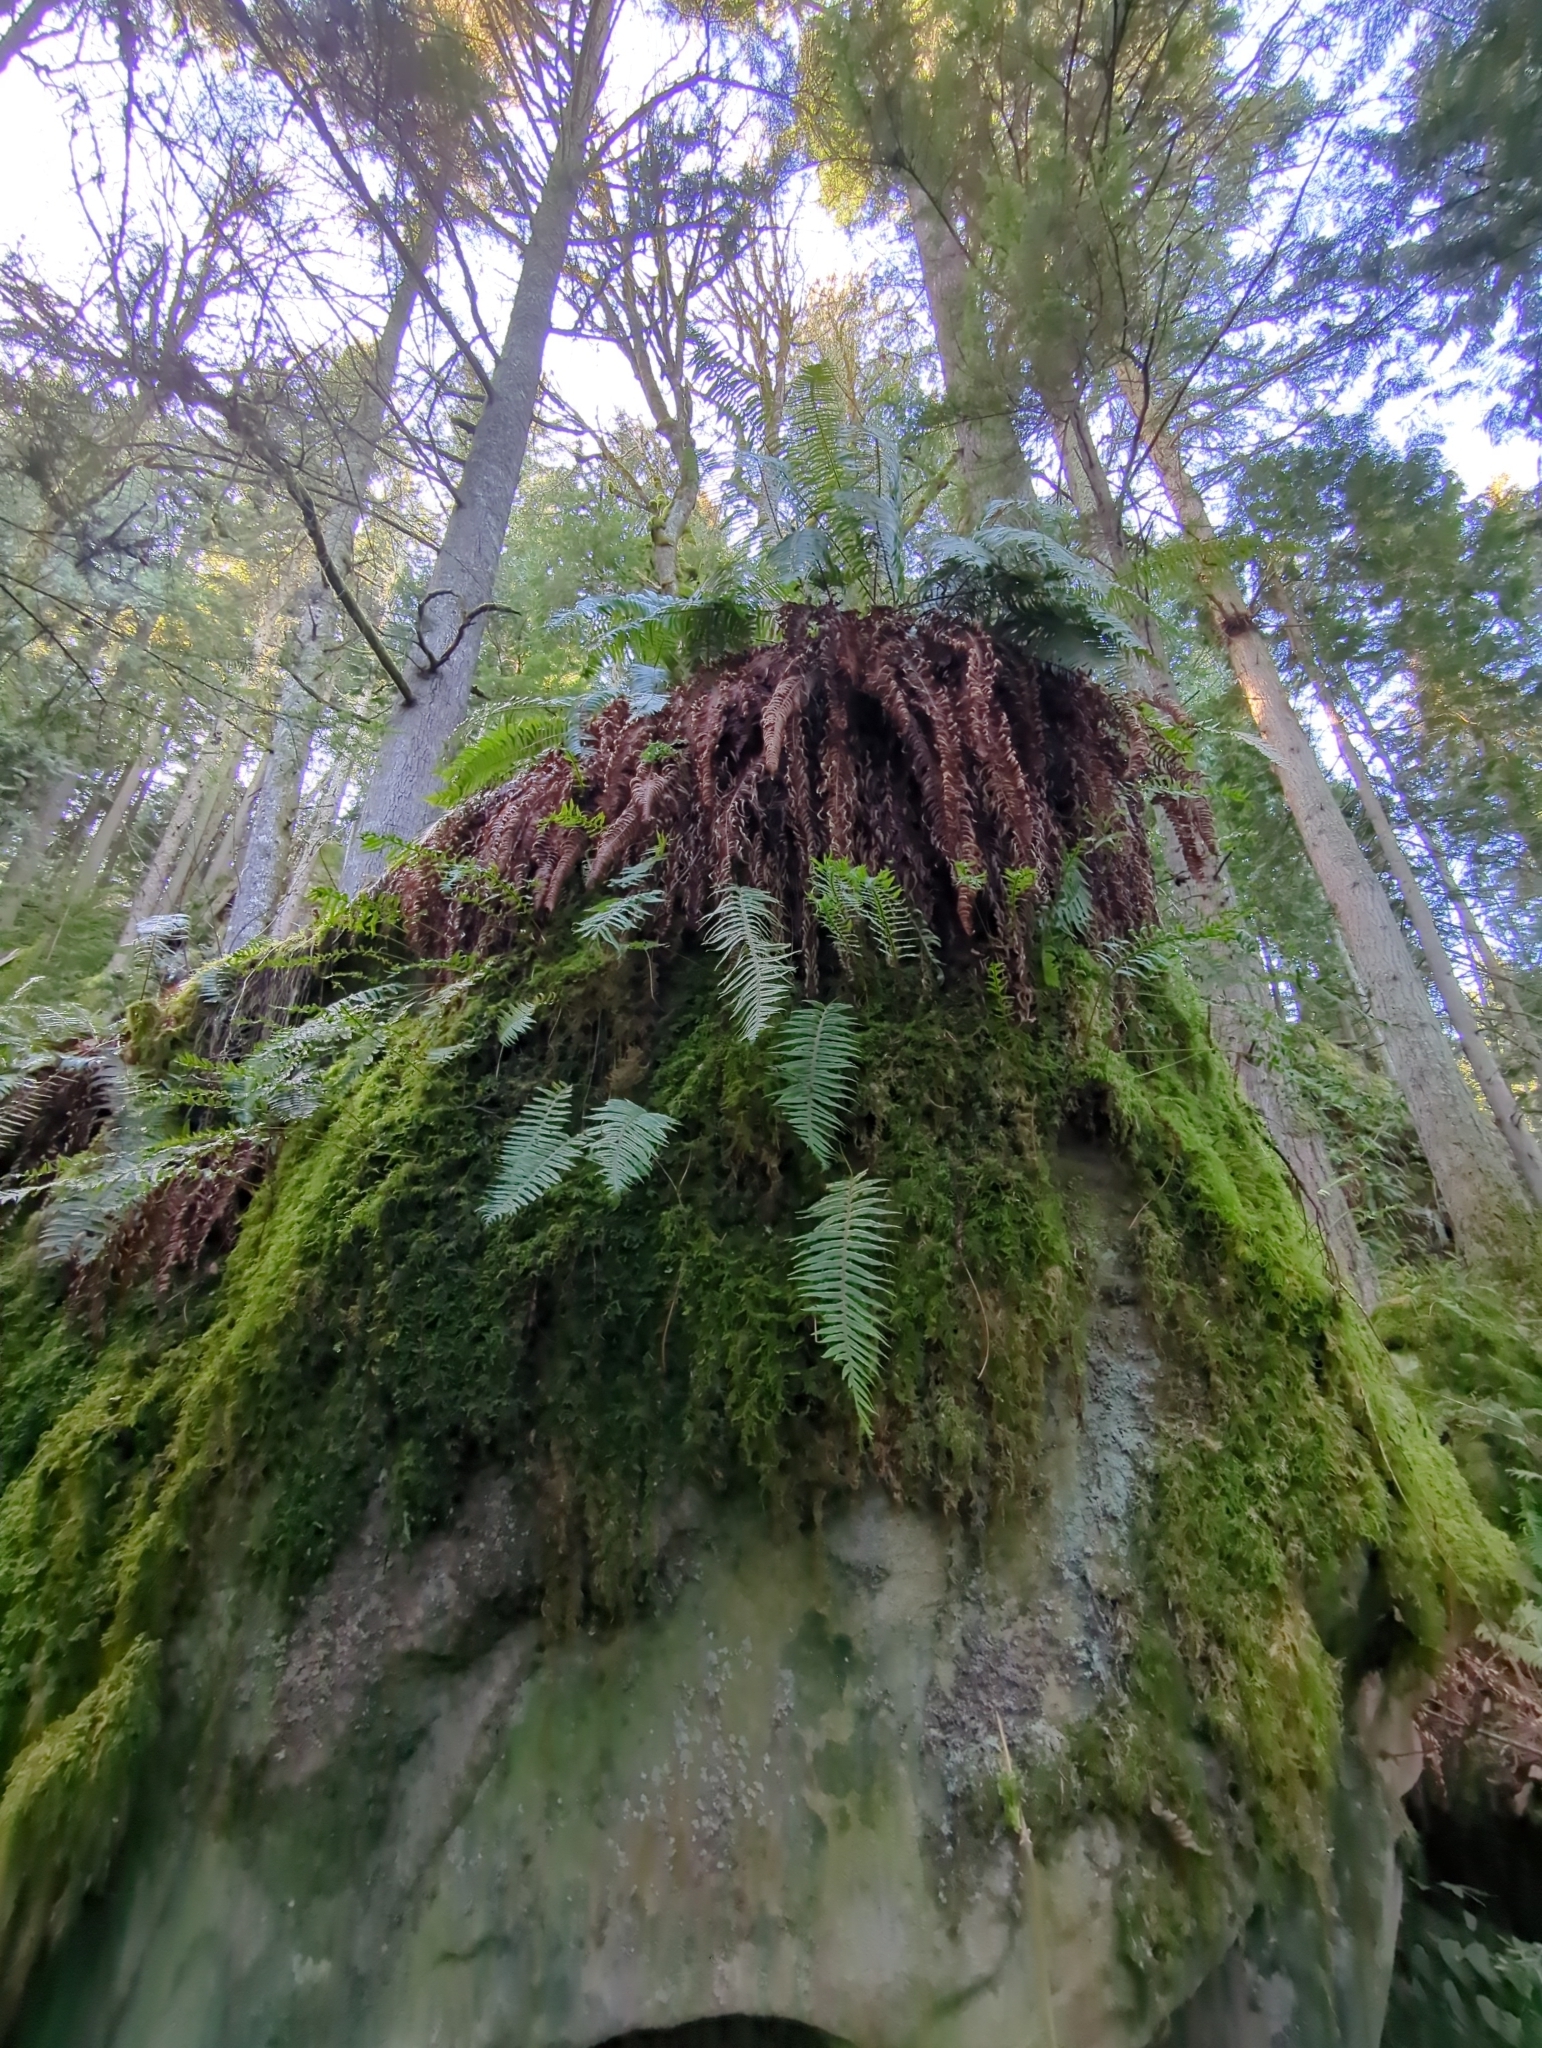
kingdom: Plantae
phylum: Tracheophyta
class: Polypodiopsida
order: Polypodiales
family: Polypodiaceae
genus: Polypodium
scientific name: Polypodium glycyrrhiza
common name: Licorice fern
